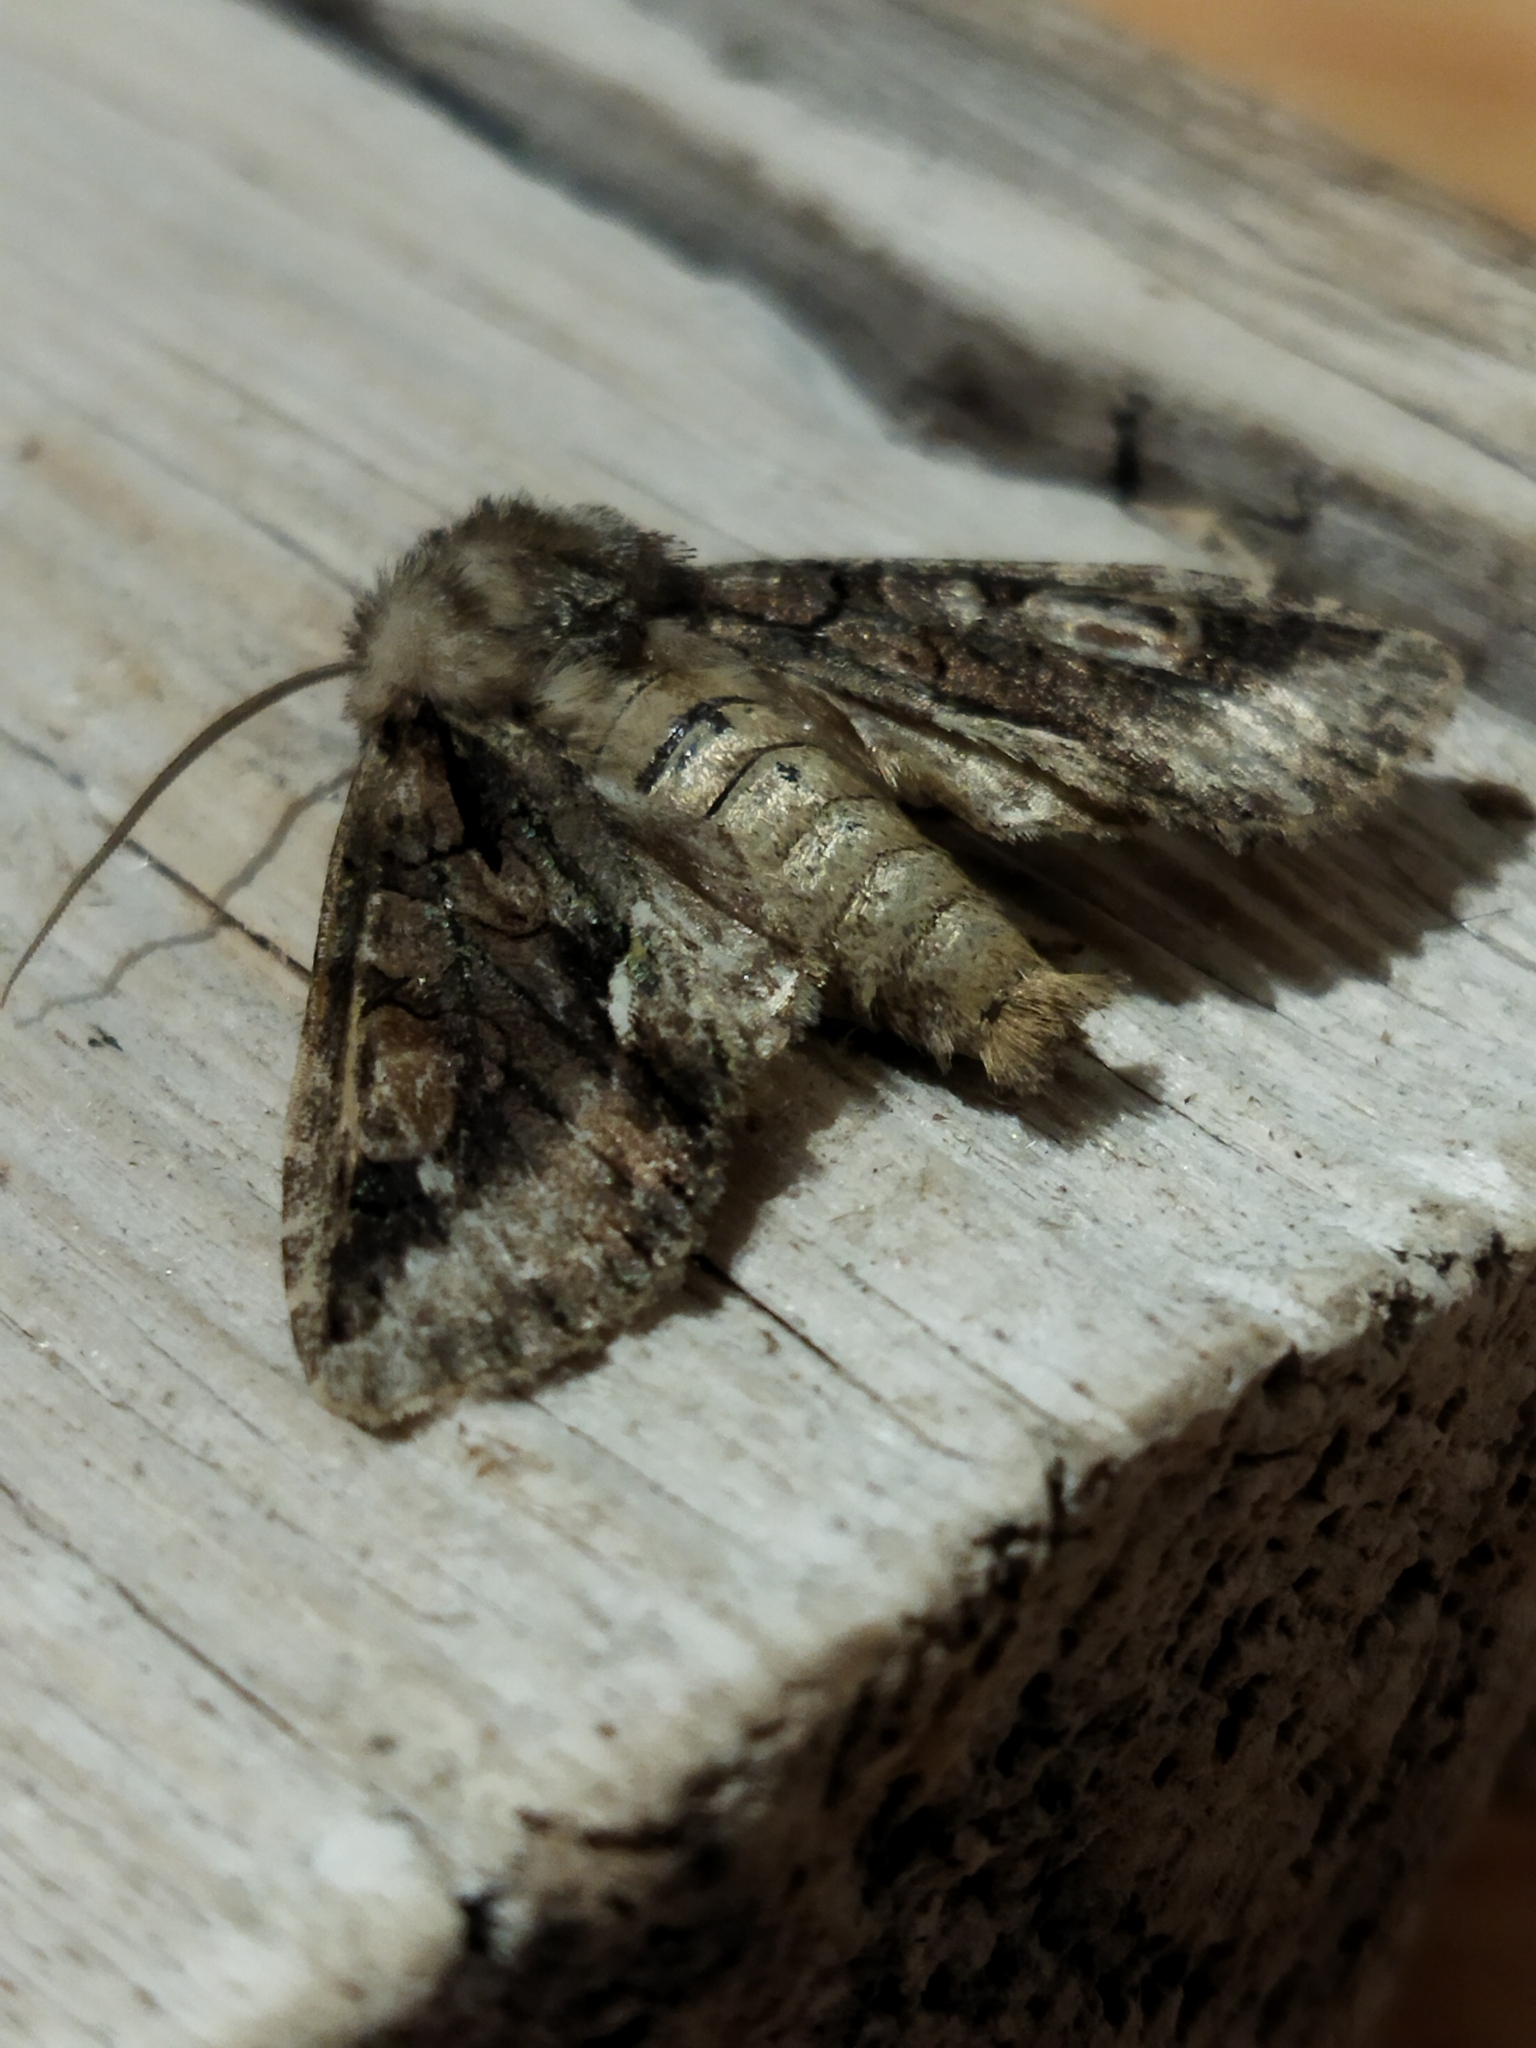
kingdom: Animalia
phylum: Arthropoda
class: Insecta
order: Lepidoptera
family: Noctuidae
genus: Allophyes
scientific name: Allophyes oxyacanthae
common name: Green-brindled crescent
